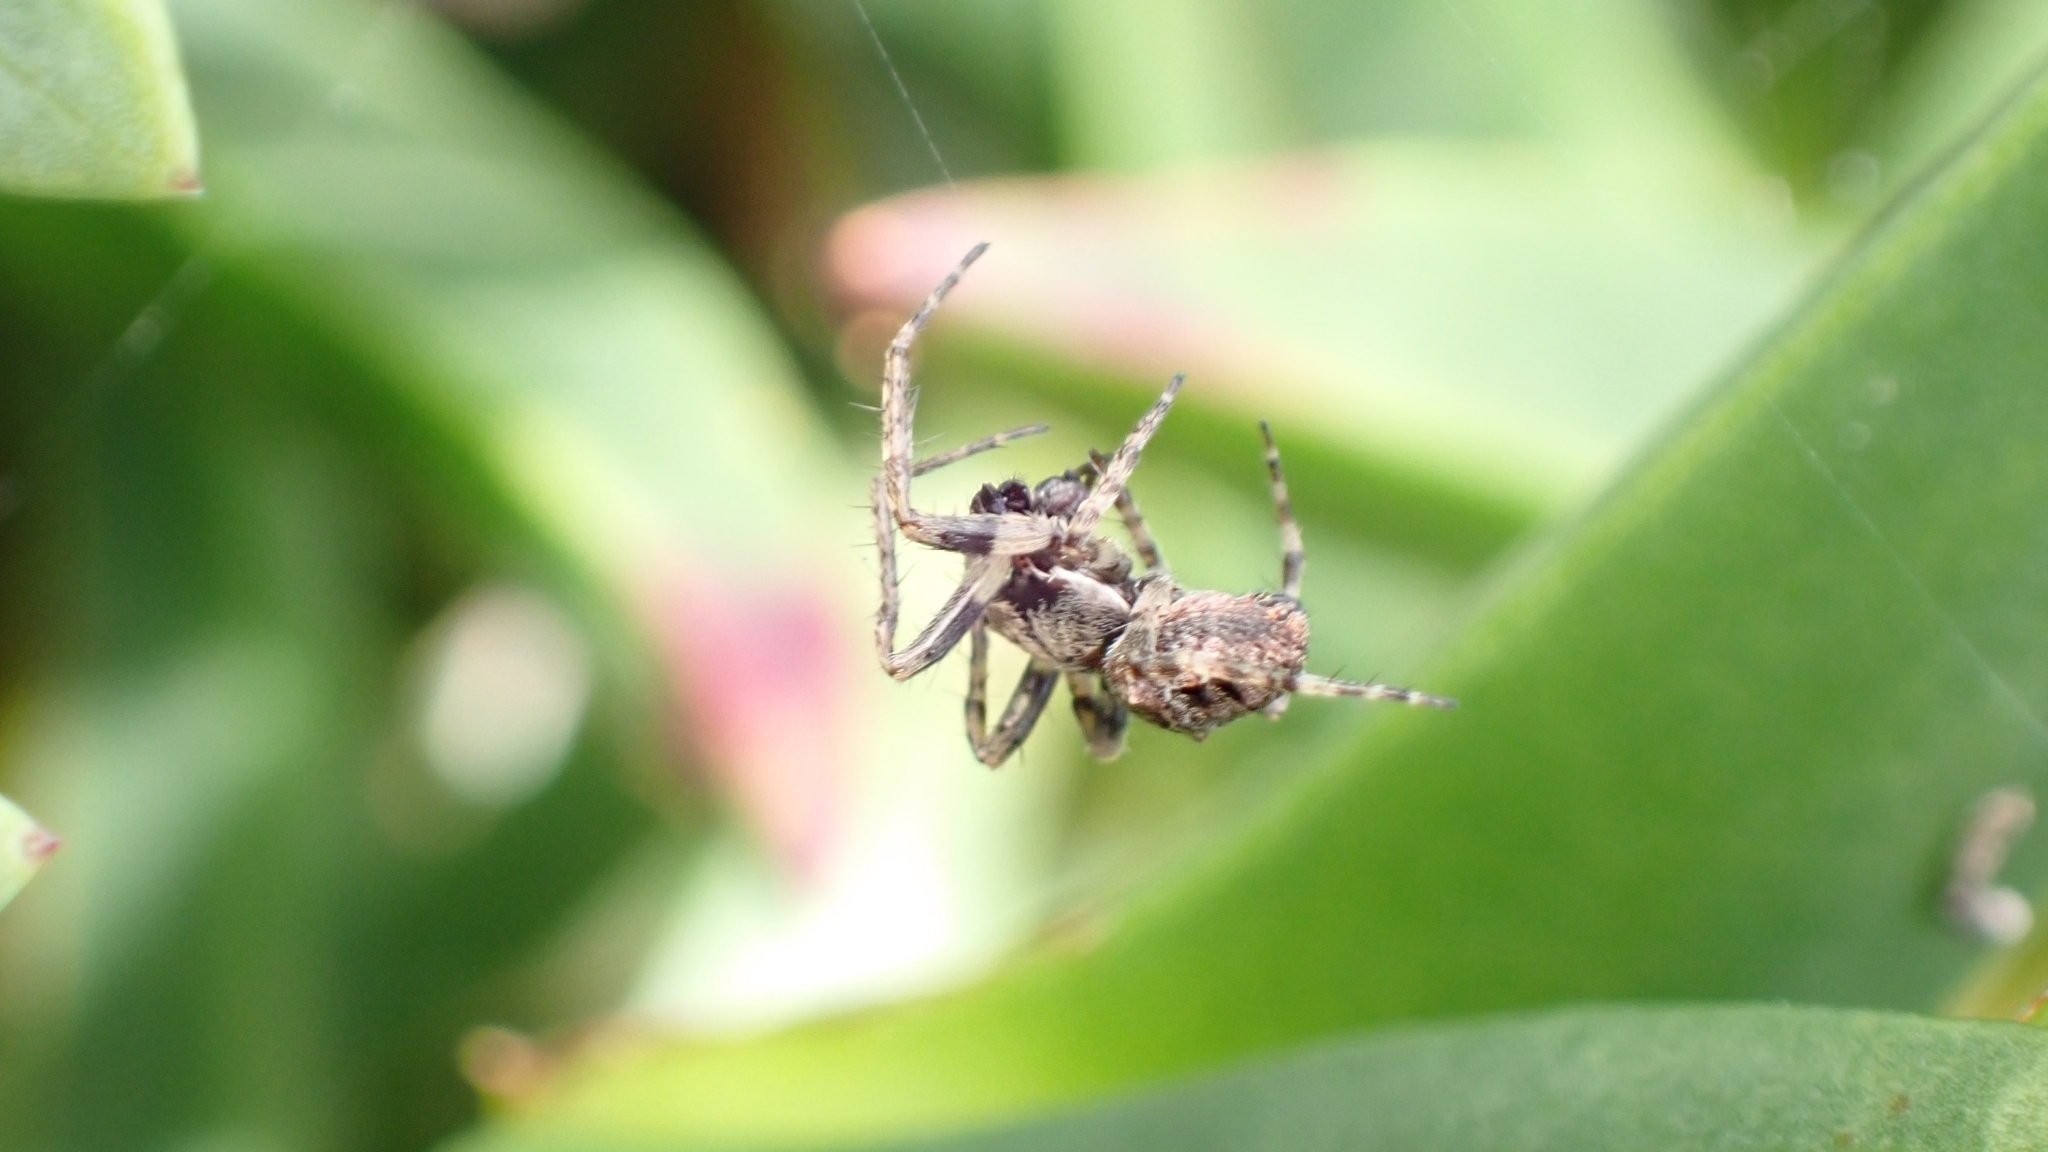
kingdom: Animalia
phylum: Arthropoda
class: Arachnida
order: Araneae
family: Araneidae
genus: Gibbaranea
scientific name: Gibbaranea bituberculata
